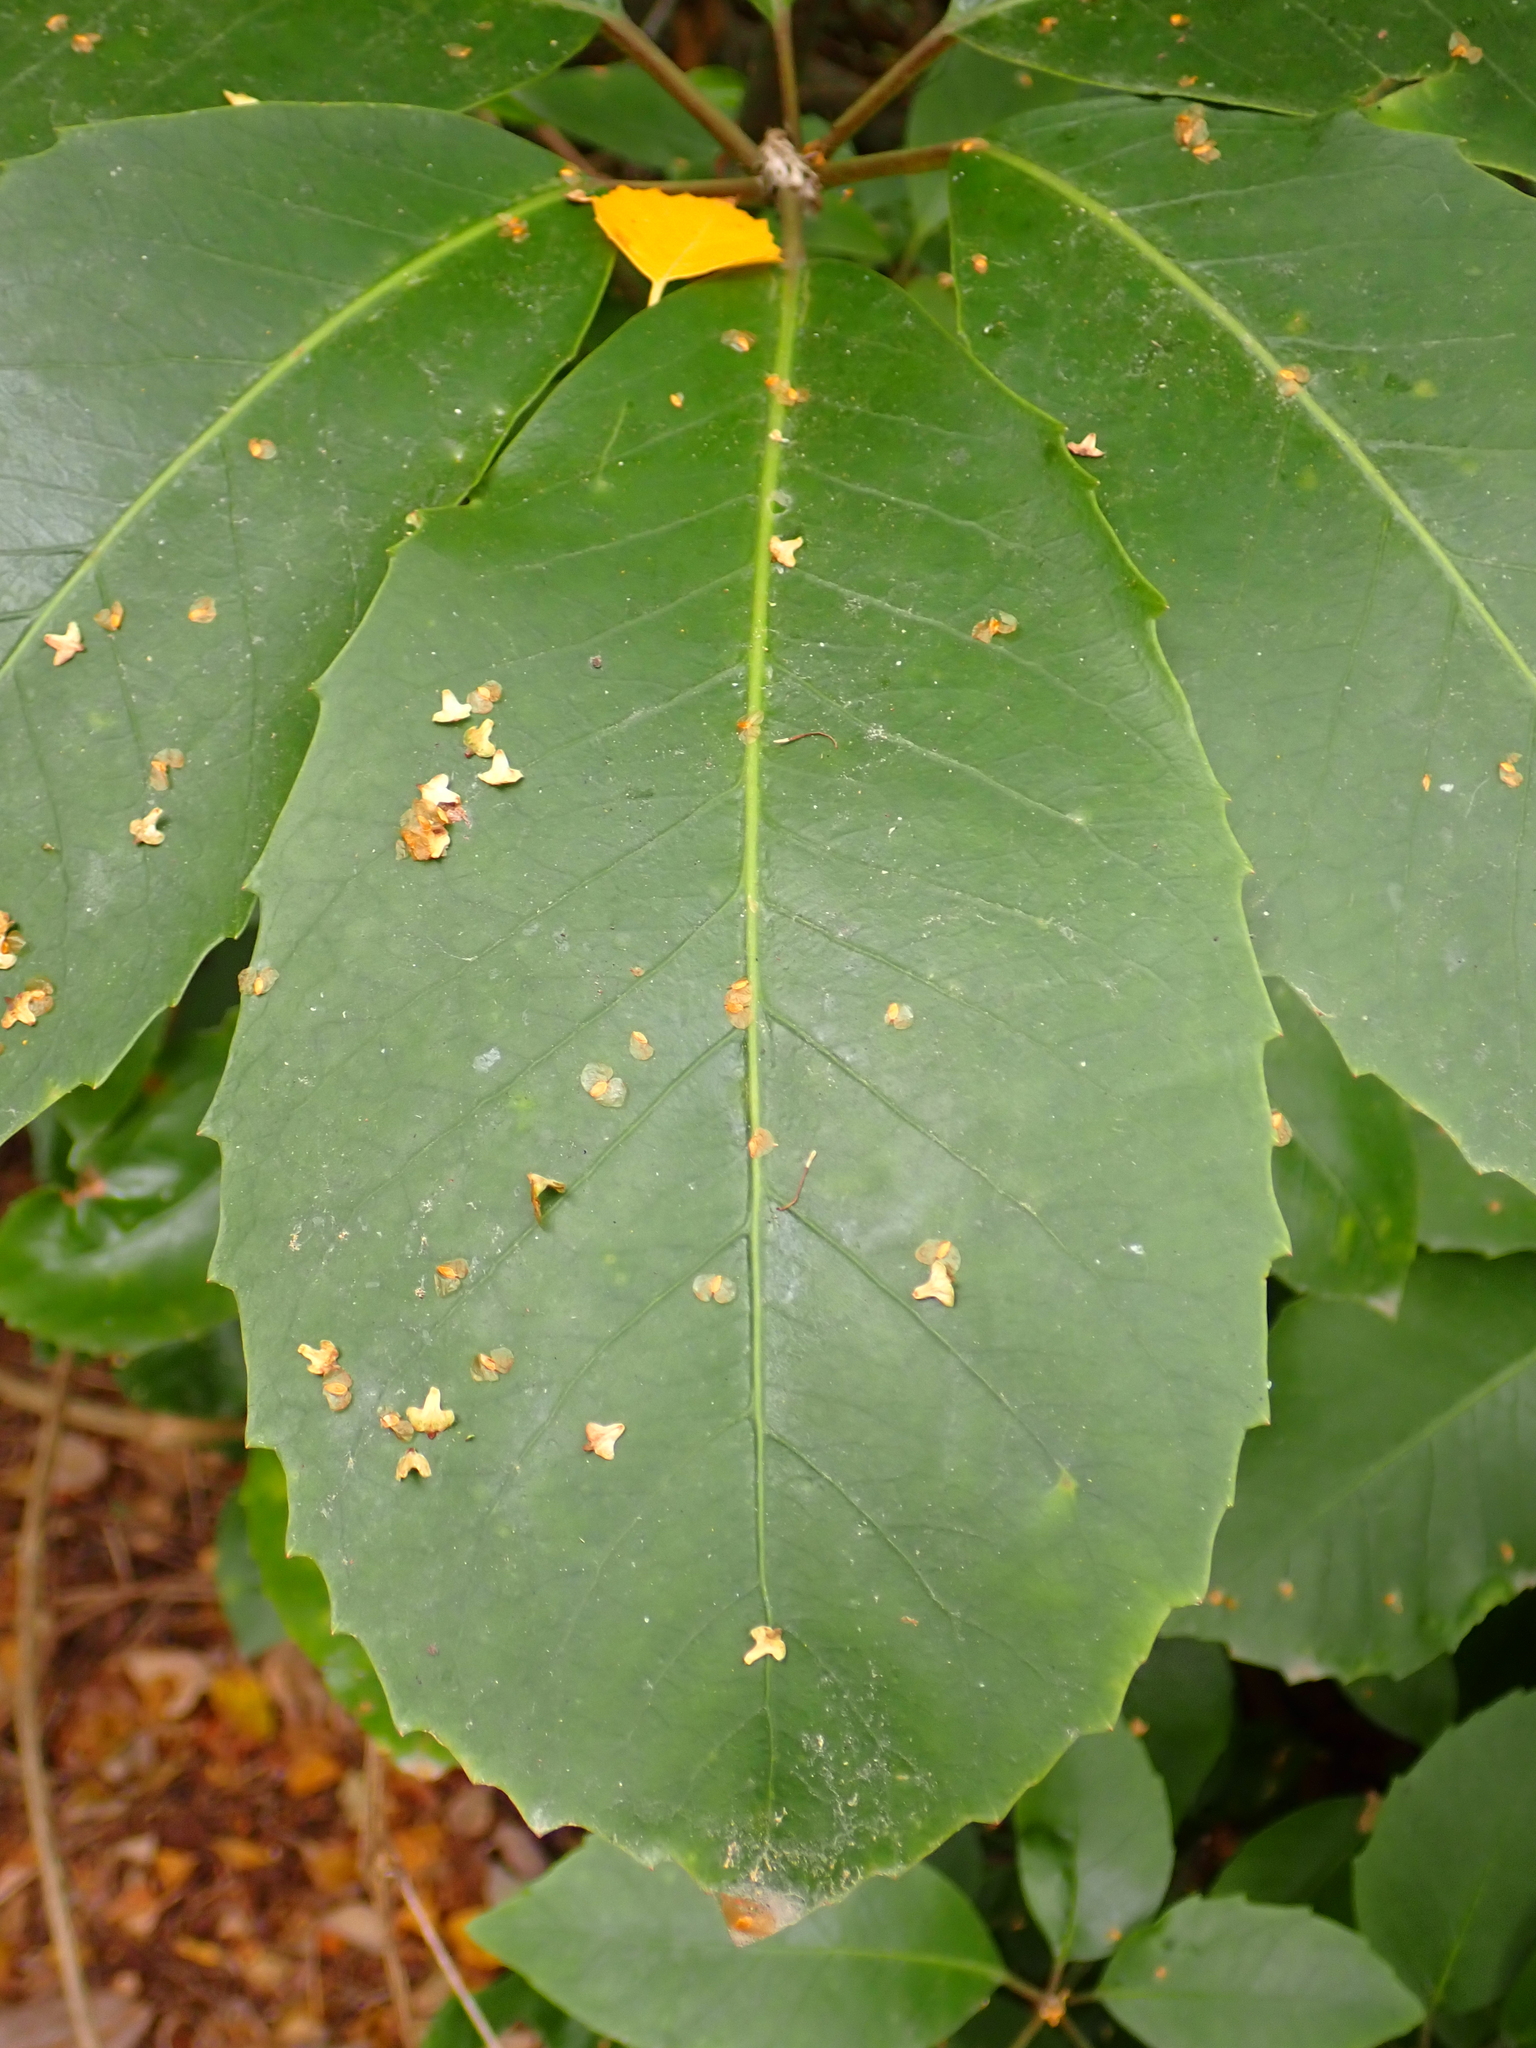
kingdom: Plantae
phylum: Tracheophyta
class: Magnoliopsida
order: Apiales
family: Araliaceae
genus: Neopanax
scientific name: Neopanax arboreus
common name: Five-fingers
